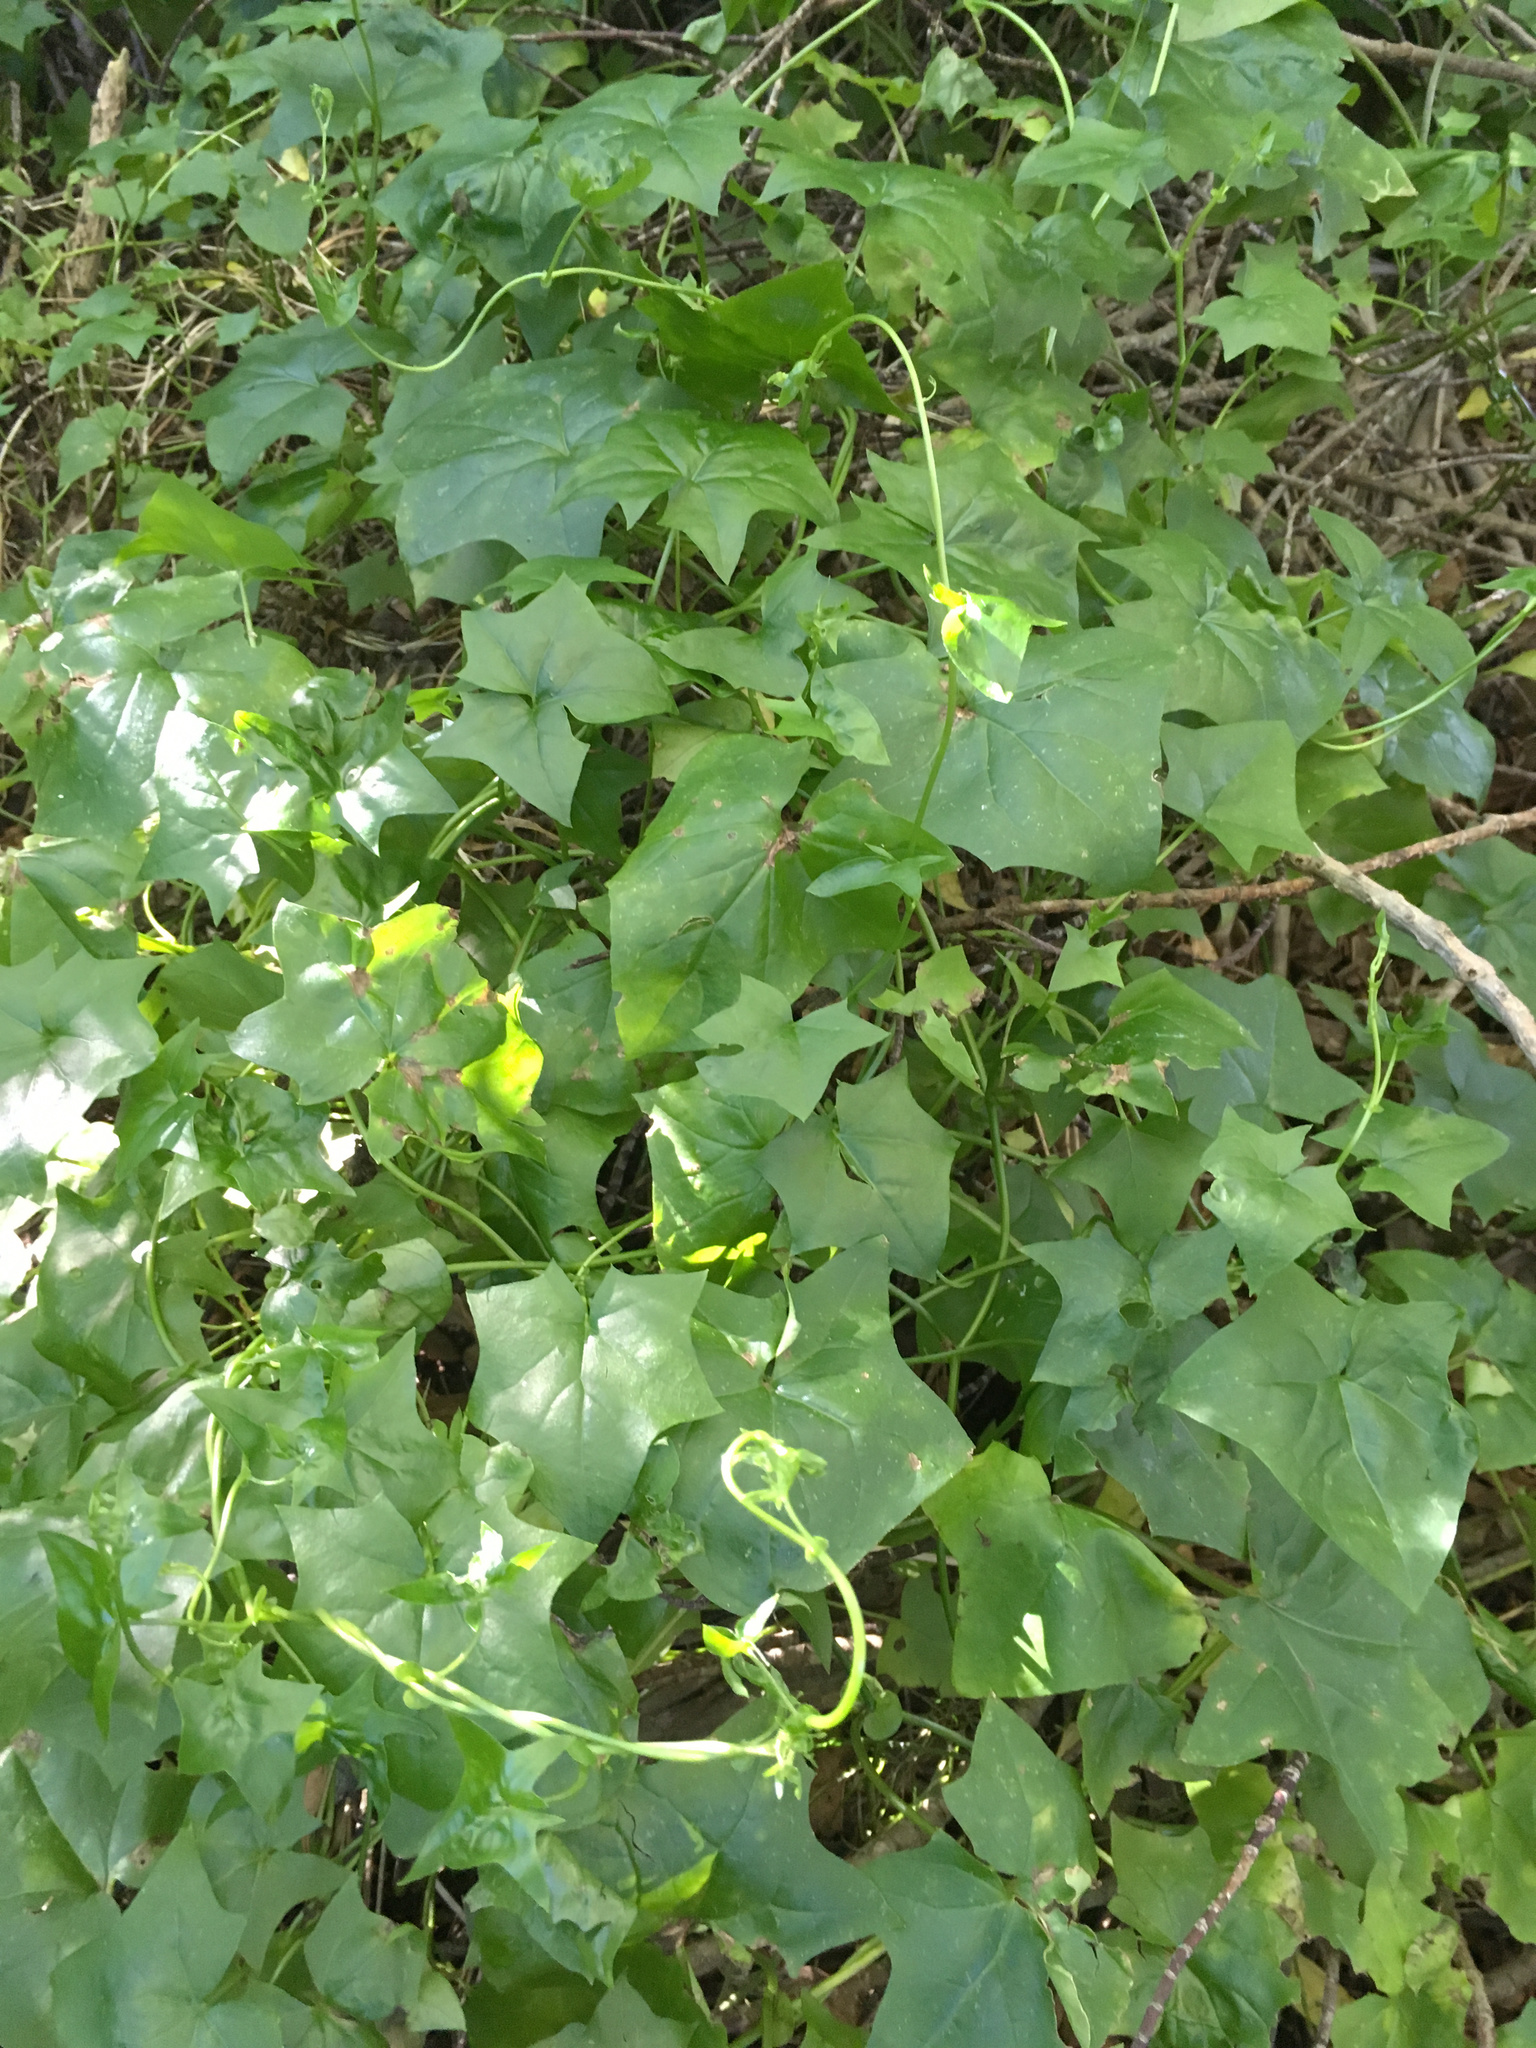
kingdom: Plantae
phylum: Tracheophyta
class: Magnoliopsida
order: Asterales
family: Asteraceae
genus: Delairea
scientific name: Delairea odorata
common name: Cape-ivy
